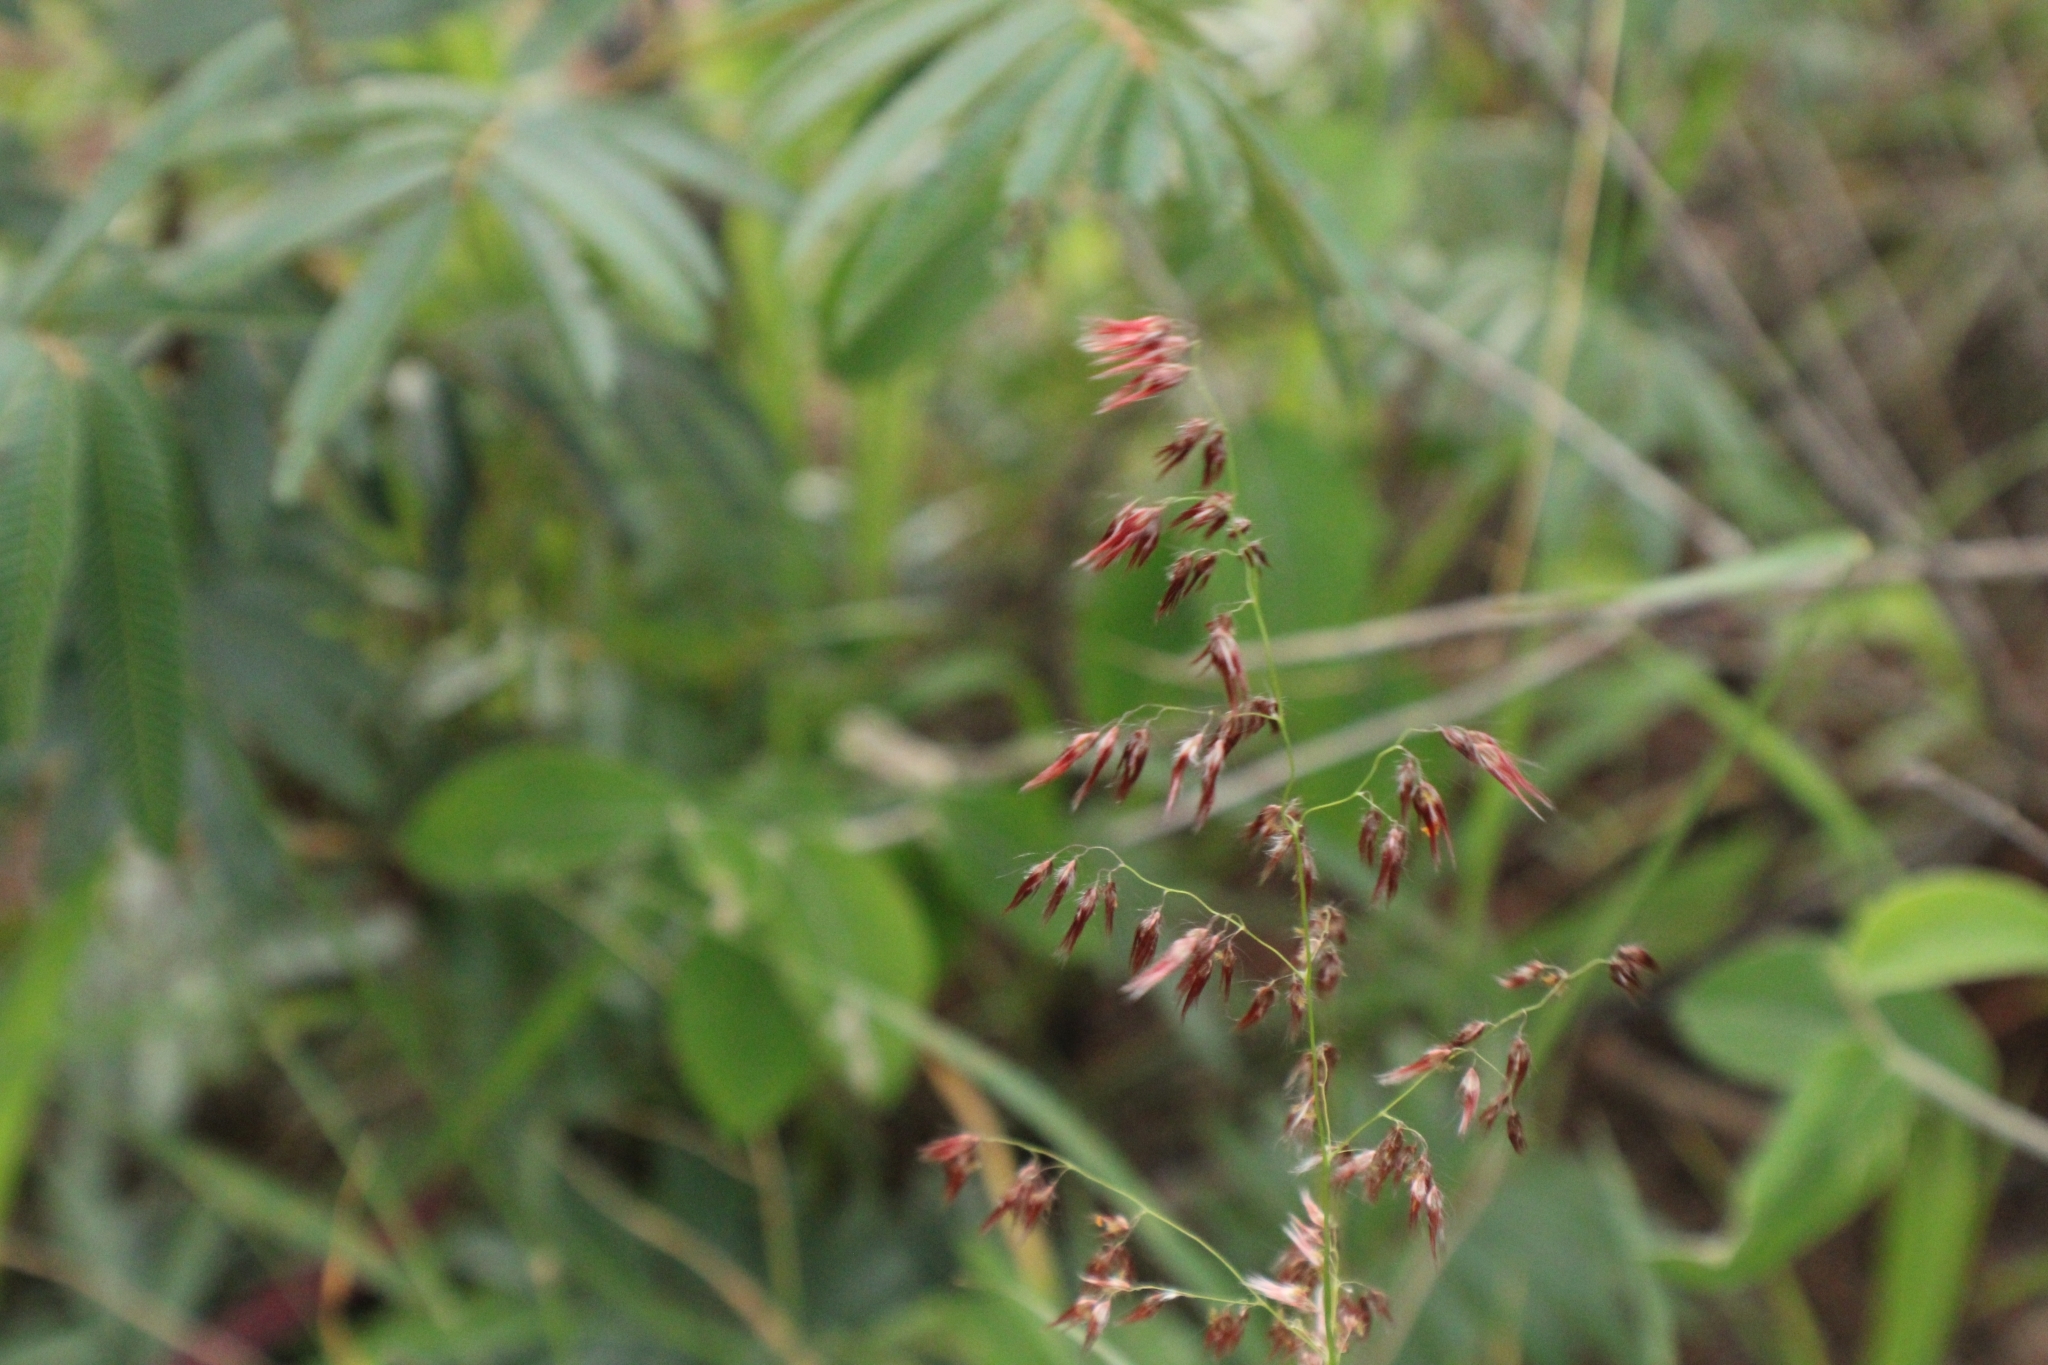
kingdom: Plantae
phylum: Tracheophyta
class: Liliopsida
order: Poales
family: Poaceae
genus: Melinis
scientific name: Melinis repens
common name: Rose natal grass
